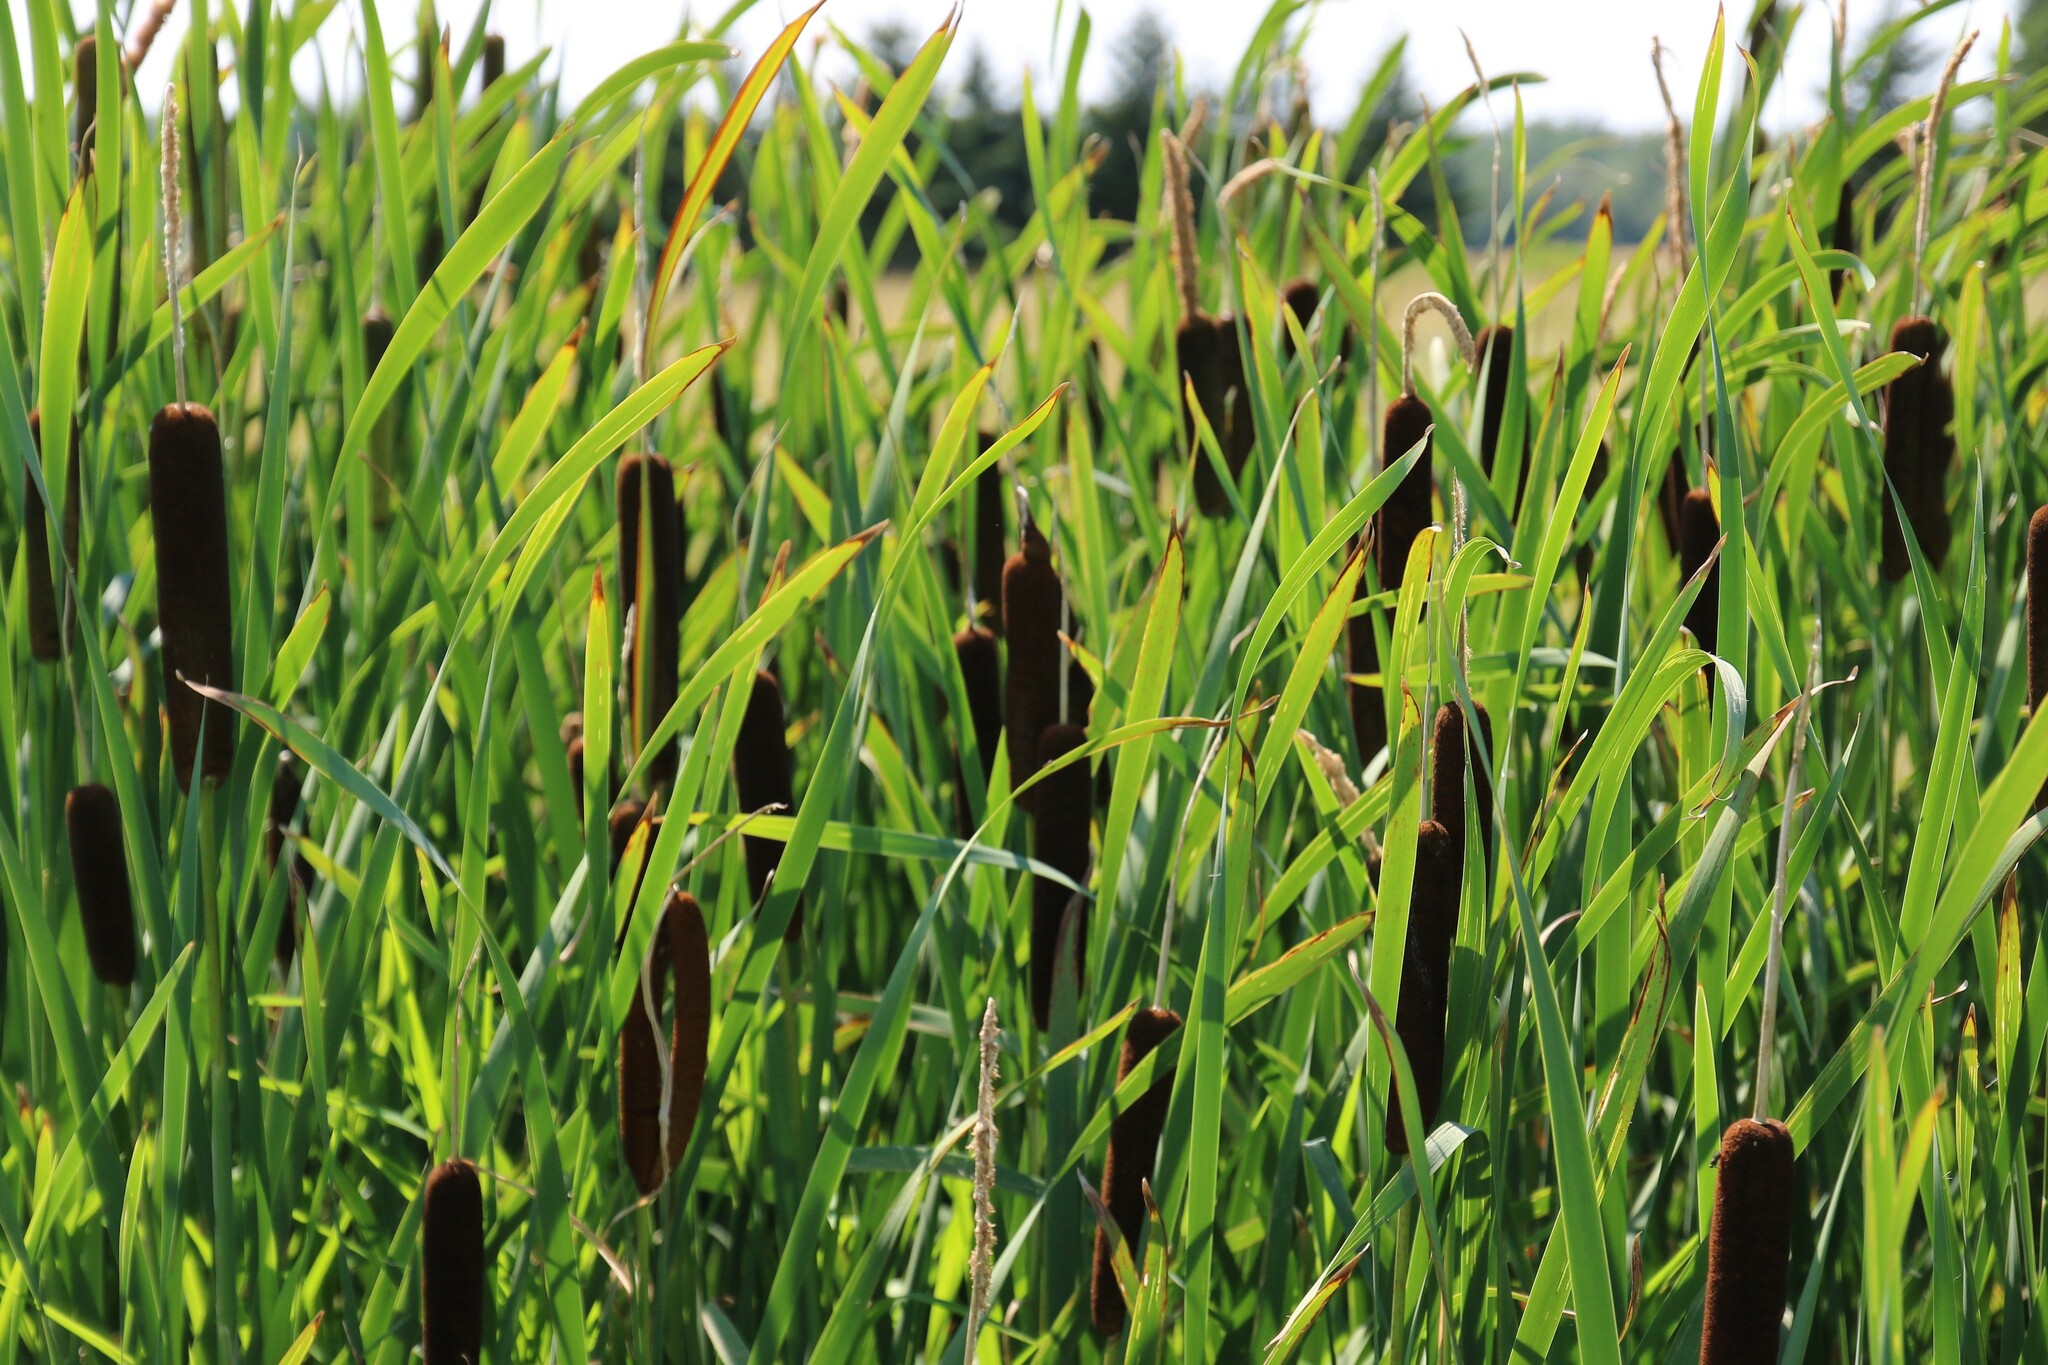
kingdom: Plantae
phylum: Tracheophyta
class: Liliopsida
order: Poales
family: Typhaceae
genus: Typha
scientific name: Typha
